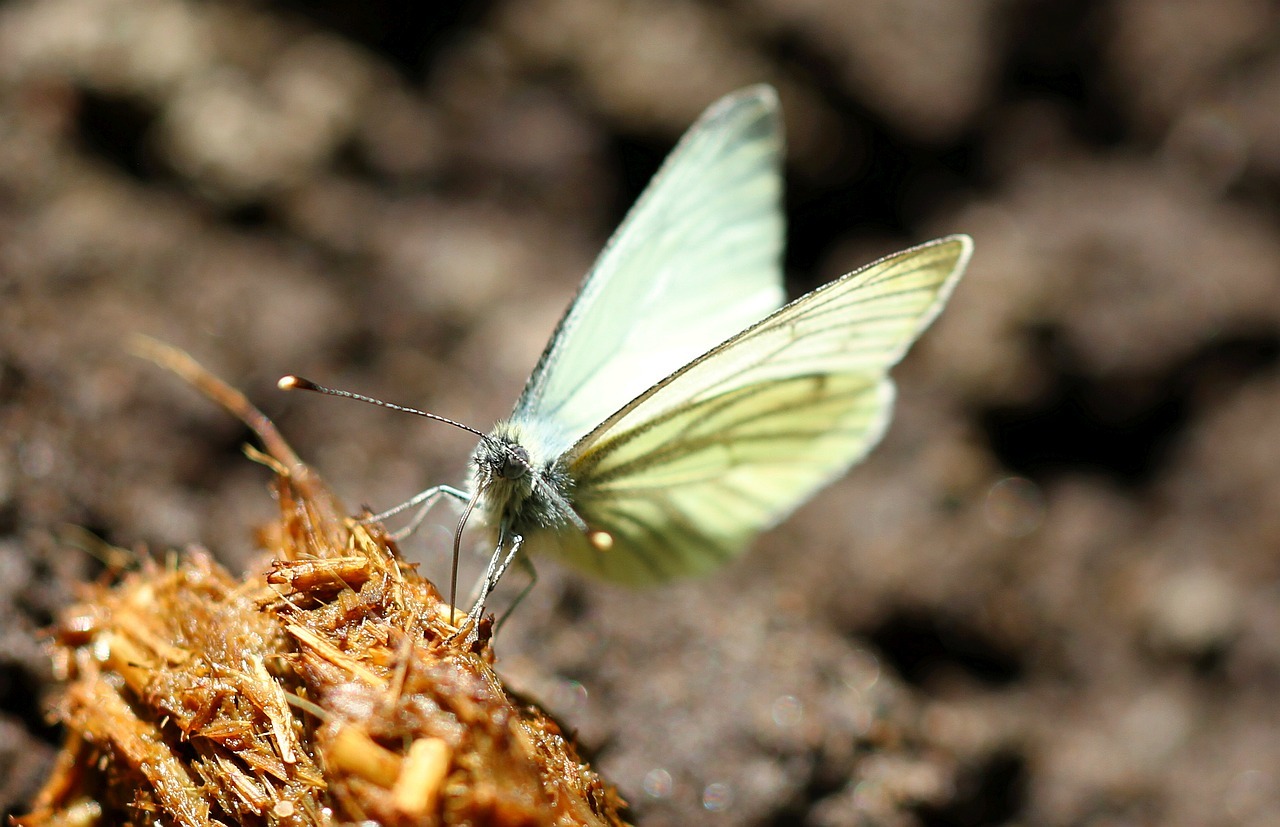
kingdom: Animalia
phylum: Arthropoda
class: Insecta
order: Lepidoptera
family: Pieridae
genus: Pieris
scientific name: Pieris napi
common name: Green-veined white
